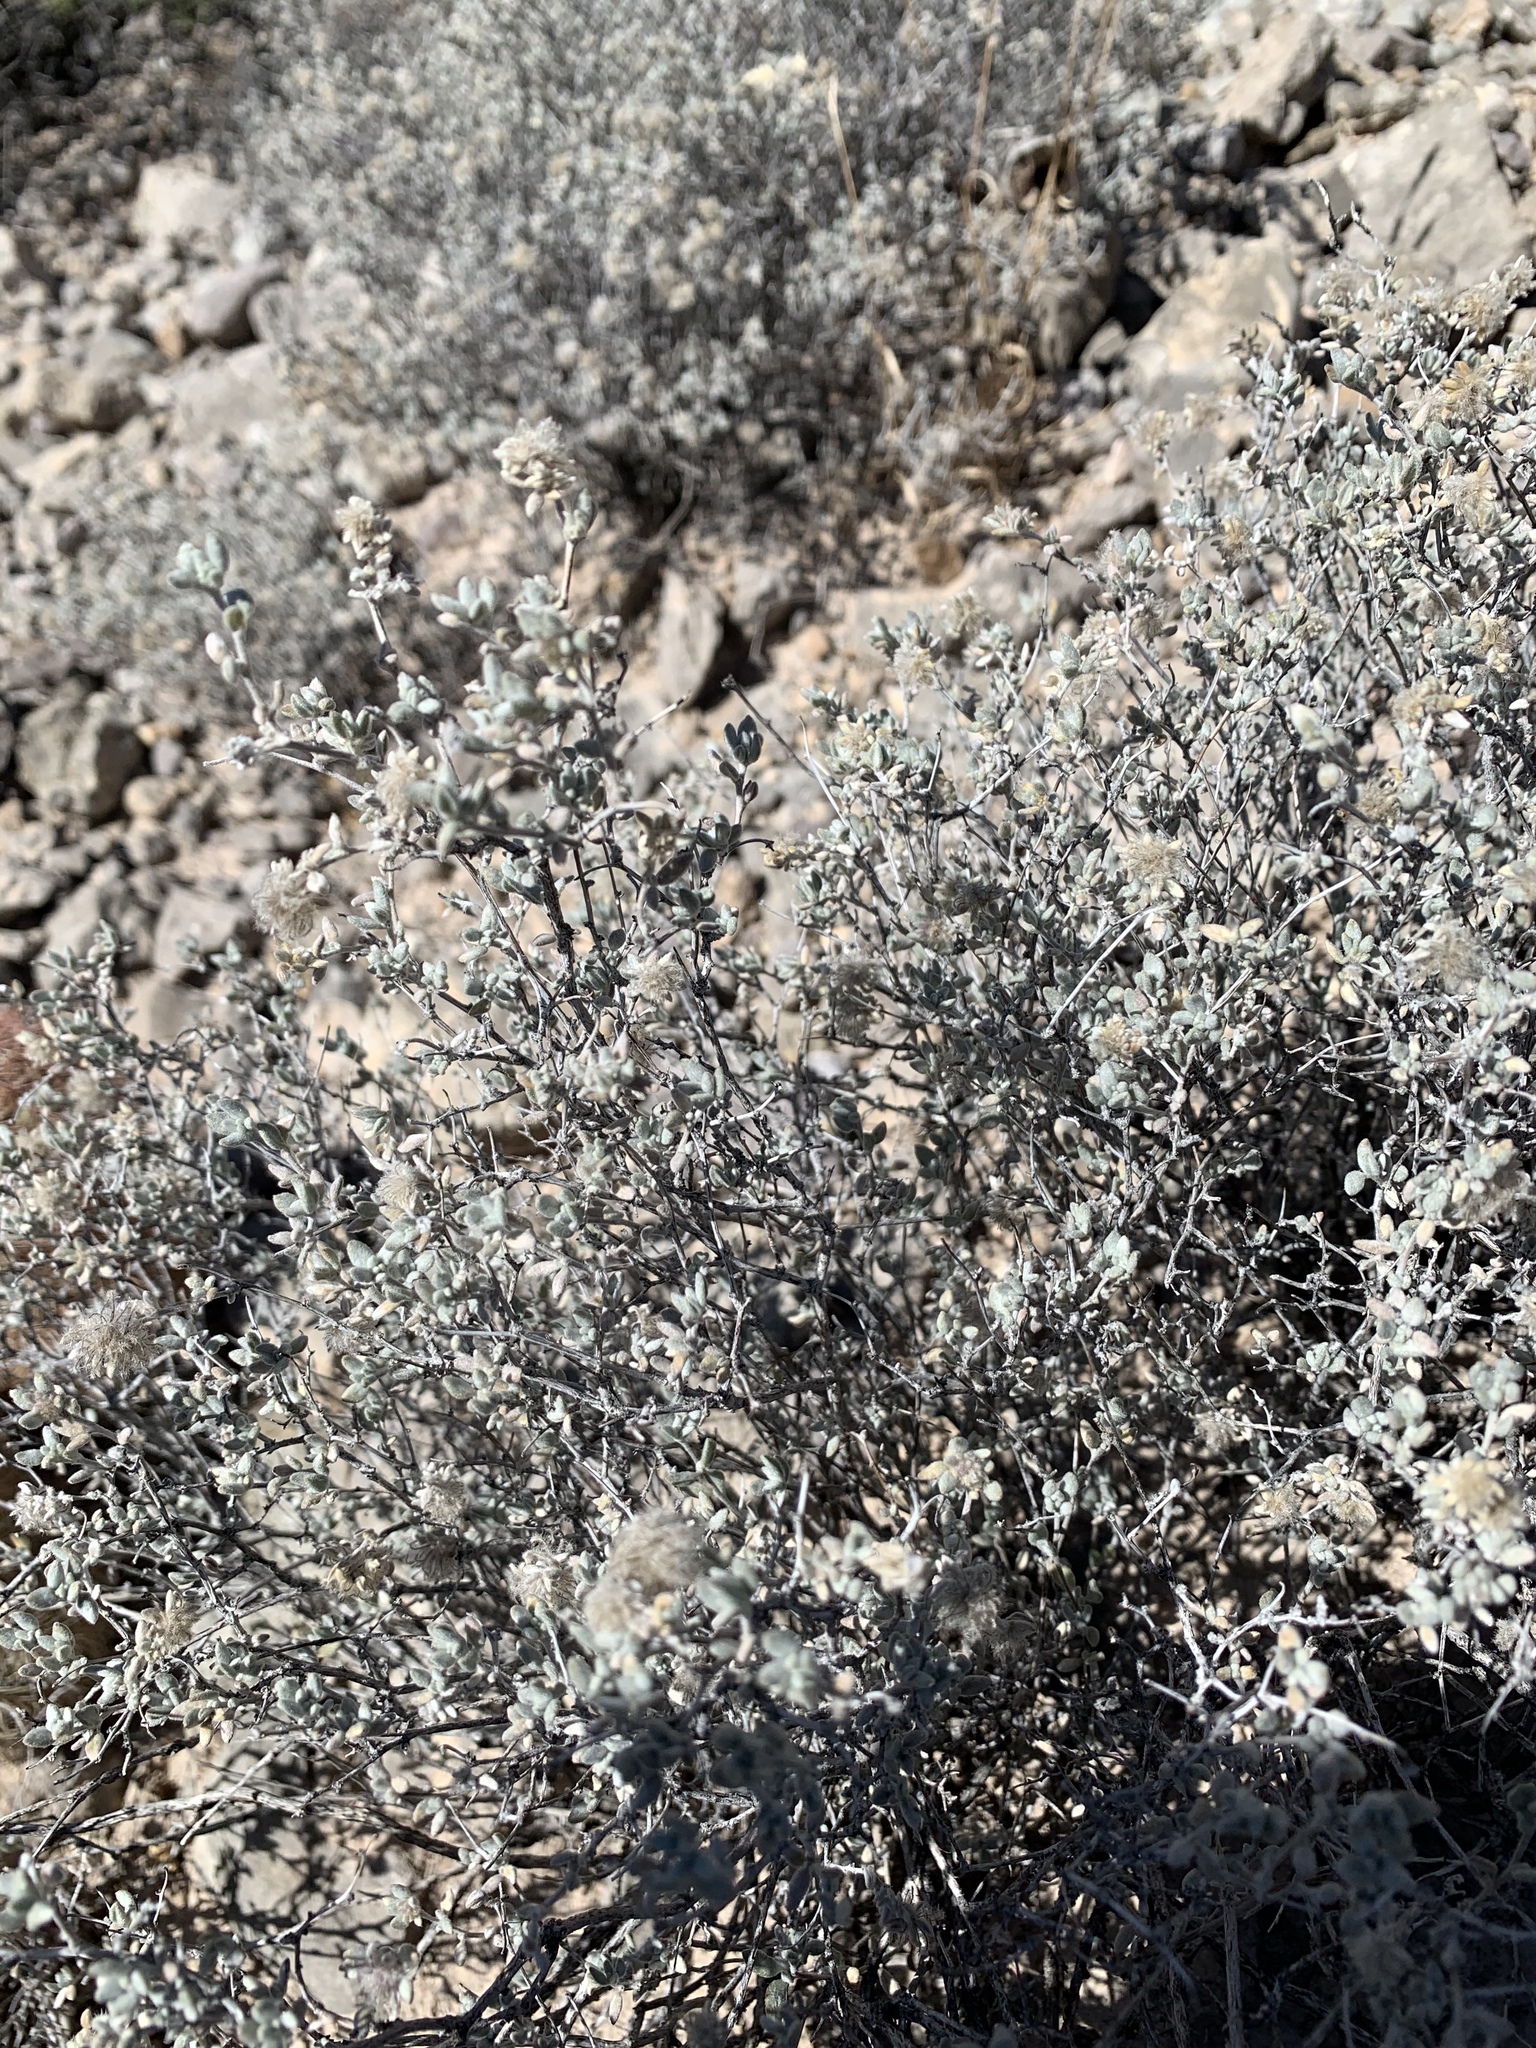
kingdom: Plantae
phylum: Tracheophyta
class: Magnoliopsida
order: Boraginales
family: Ehretiaceae
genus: Tiquilia
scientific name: Tiquilia canescens
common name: Hairy tiquilia
